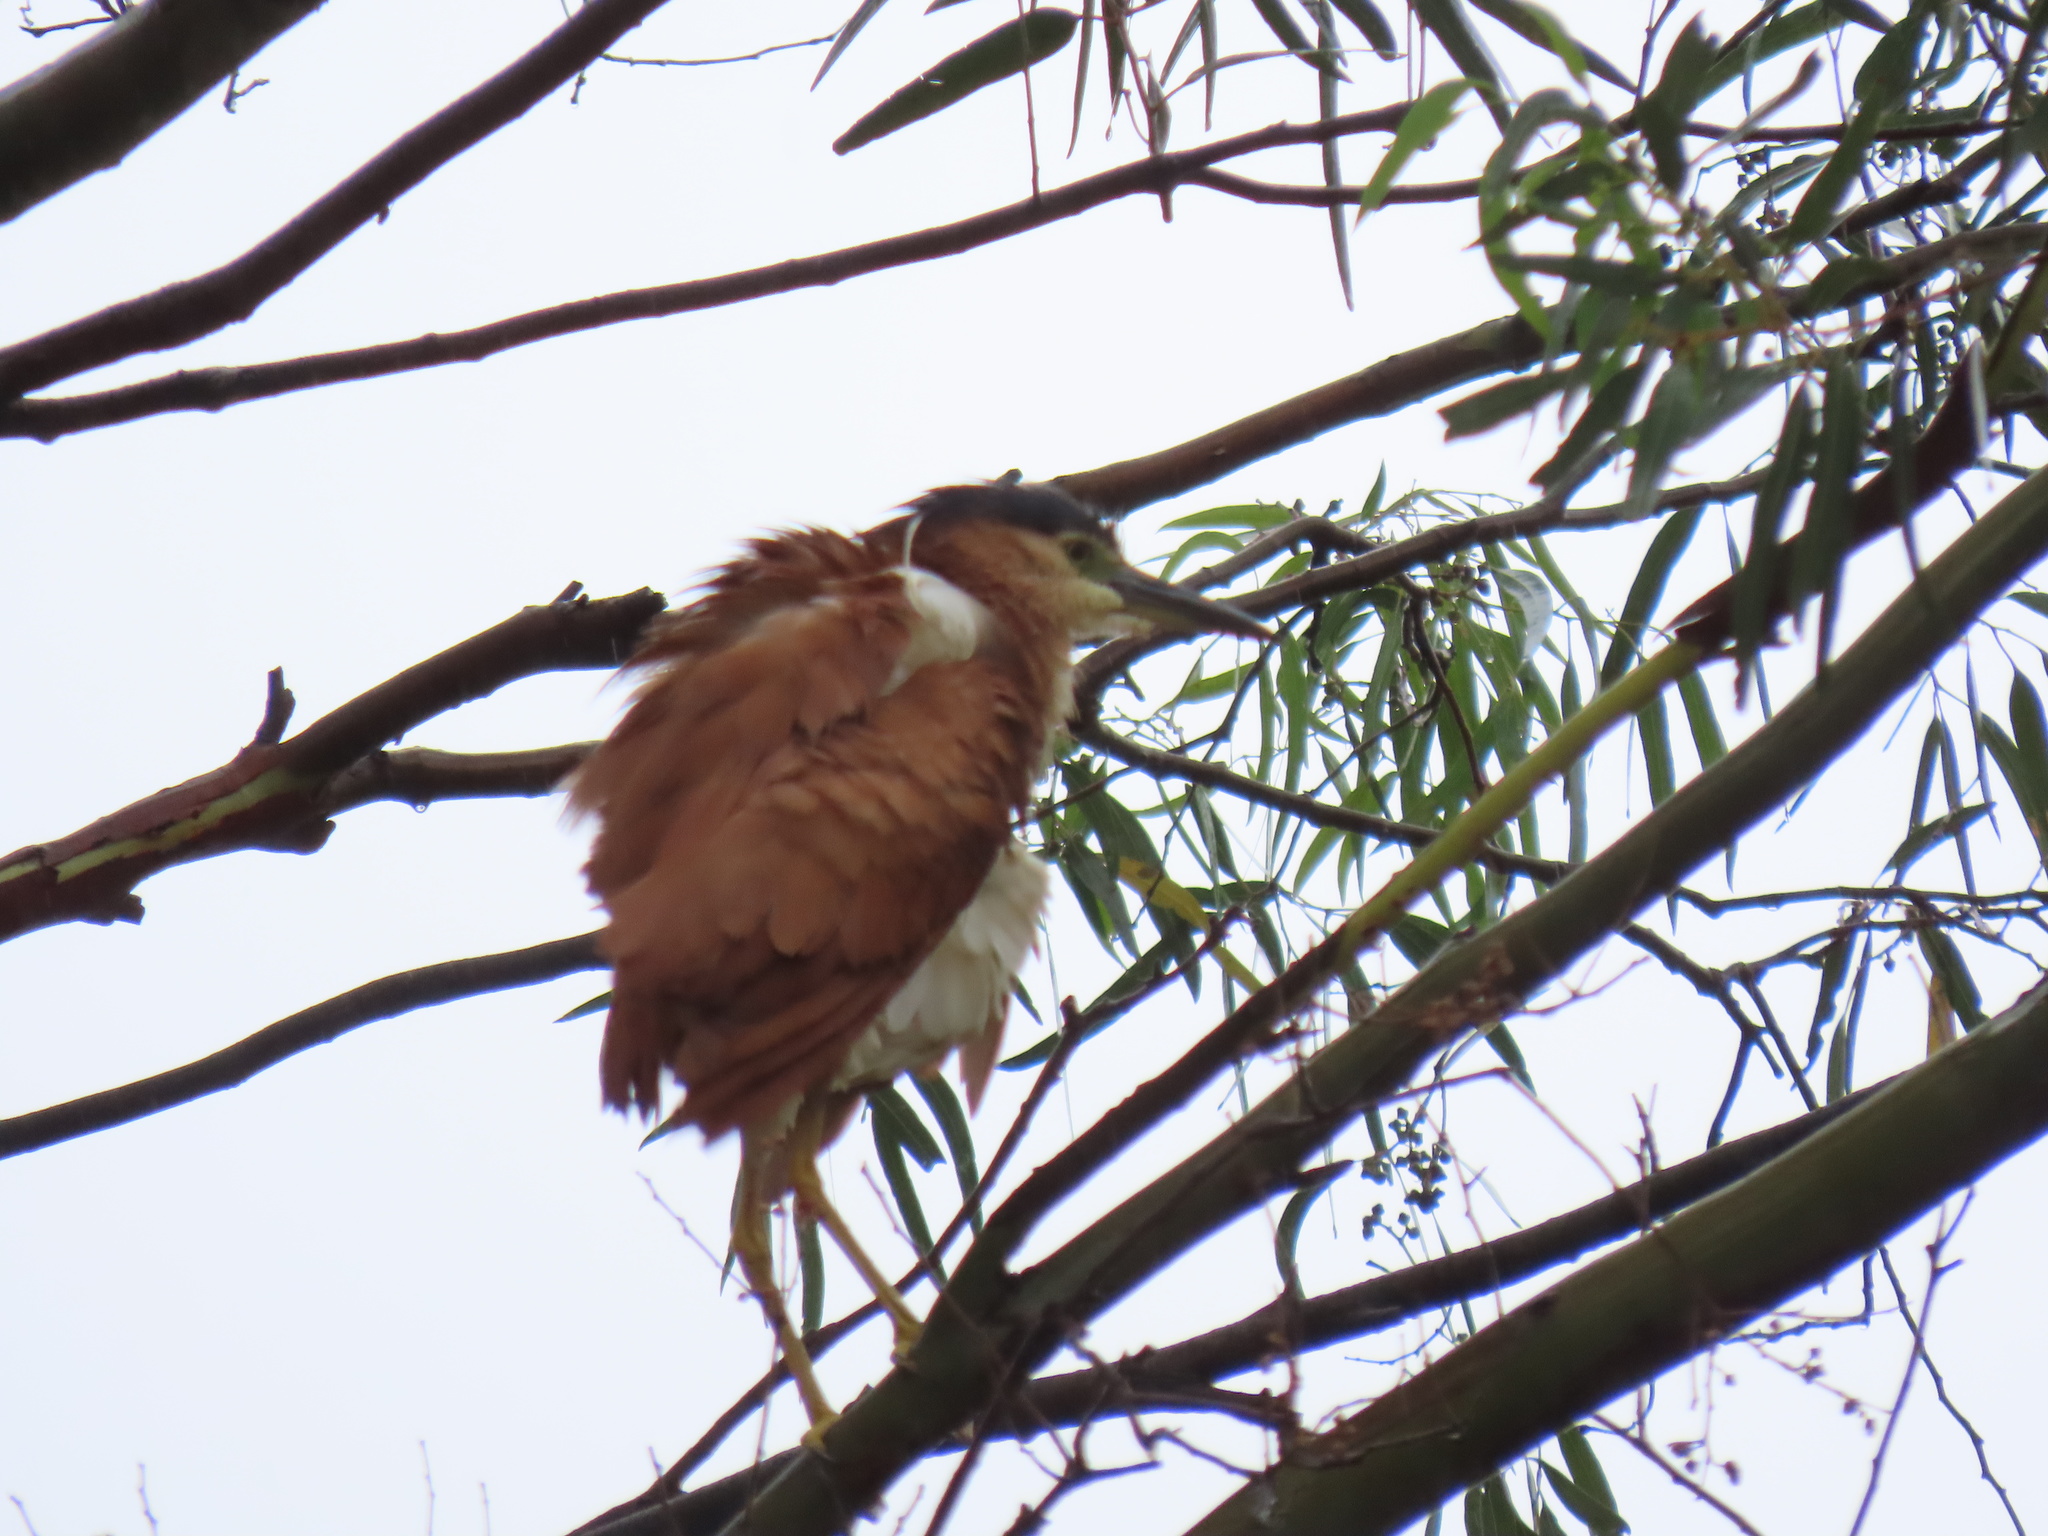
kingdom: Animalia
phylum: Chordata
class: Aves
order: Pelecaniformes
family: Ardeidae
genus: Nycticorax
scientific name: Nycticorax caledonicus
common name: Rufous night-heron
